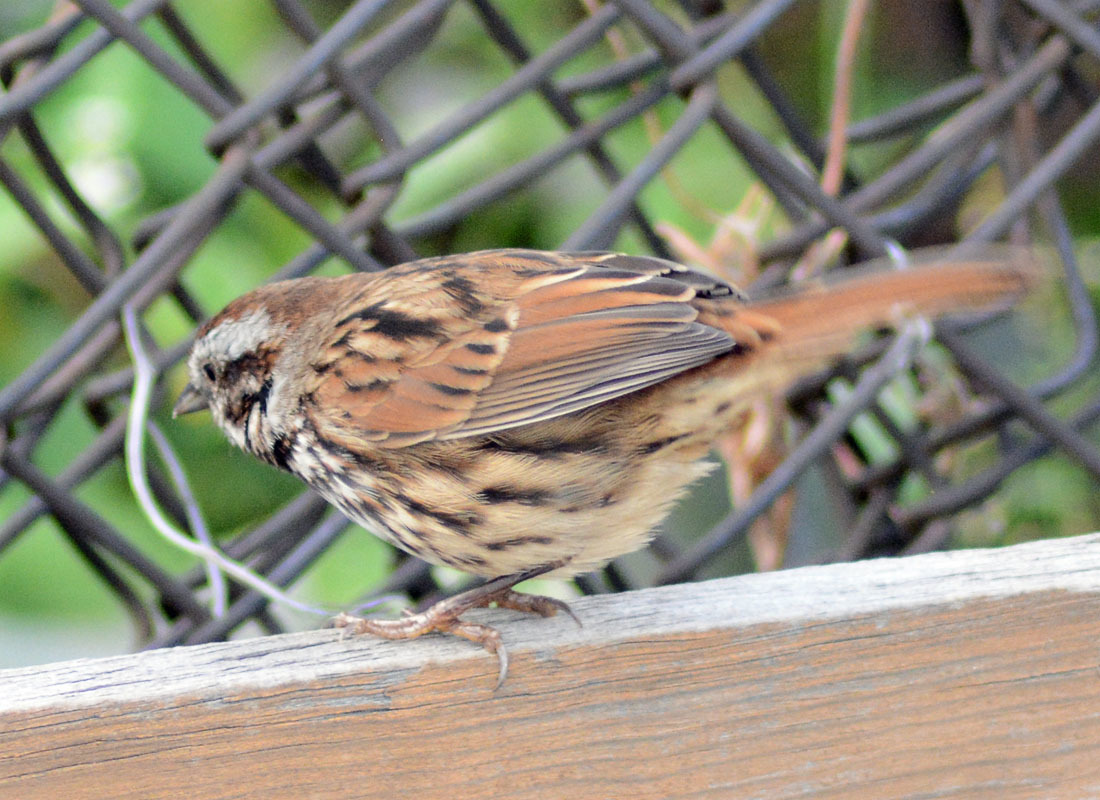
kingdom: Animalia
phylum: Chordata
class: Aves
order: Passeriformes
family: Passerellidae
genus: Melospiza
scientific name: Melospiza melodia
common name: Song sparrow
